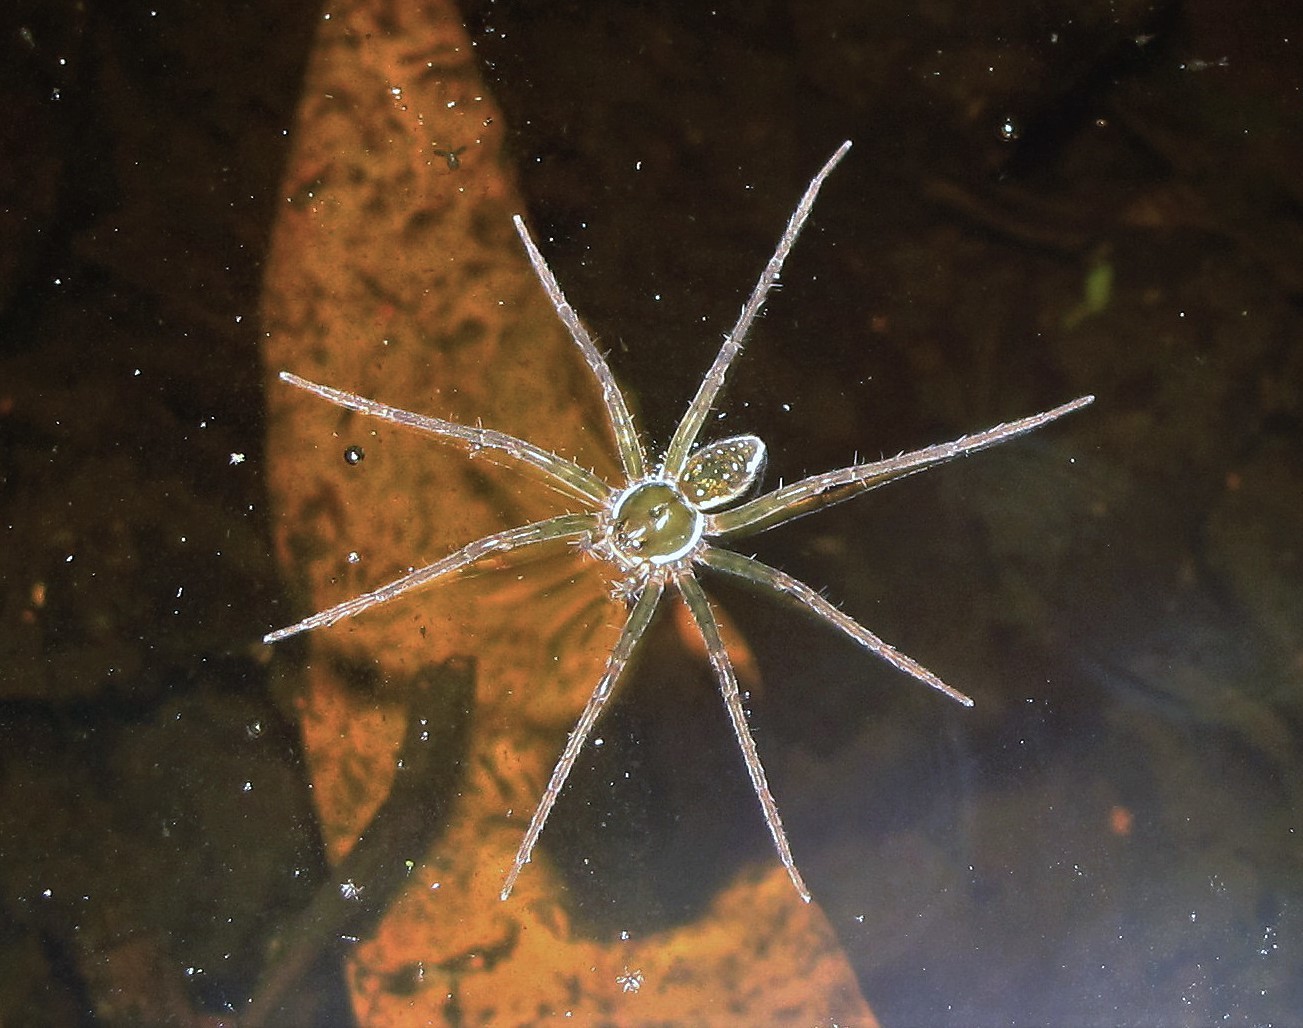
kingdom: Animalia
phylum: Arthropoda
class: Arachnida
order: Araneae
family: Pisauridae
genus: Thaumasia
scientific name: Thaumasia velox
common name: Nursery web spiders
